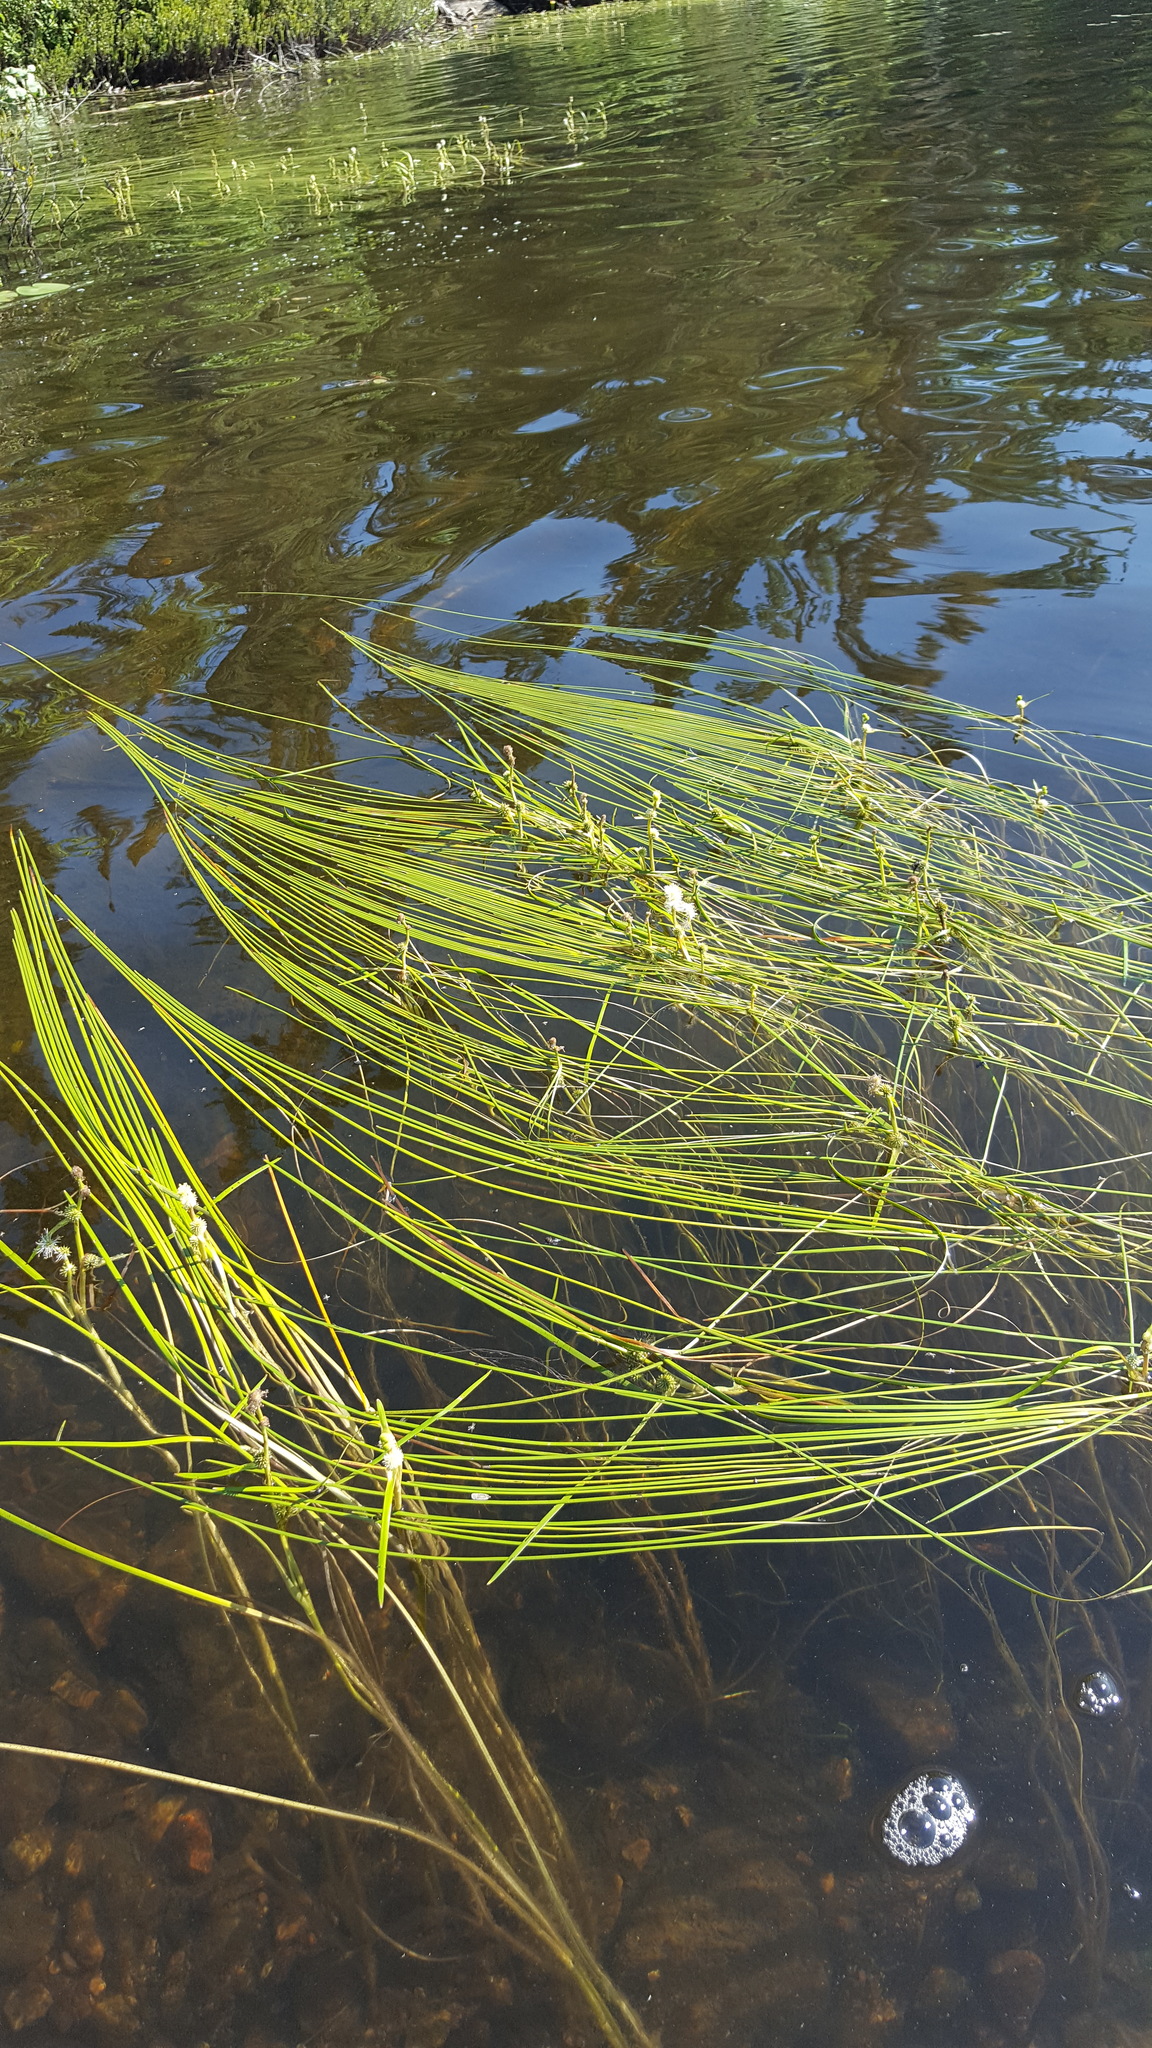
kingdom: Plantae
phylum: Tracheophyta
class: Liliopsida
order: Poales
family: Typhaceae
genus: Sparganium
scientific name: Sparganium fluctuans
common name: Floating burreed
